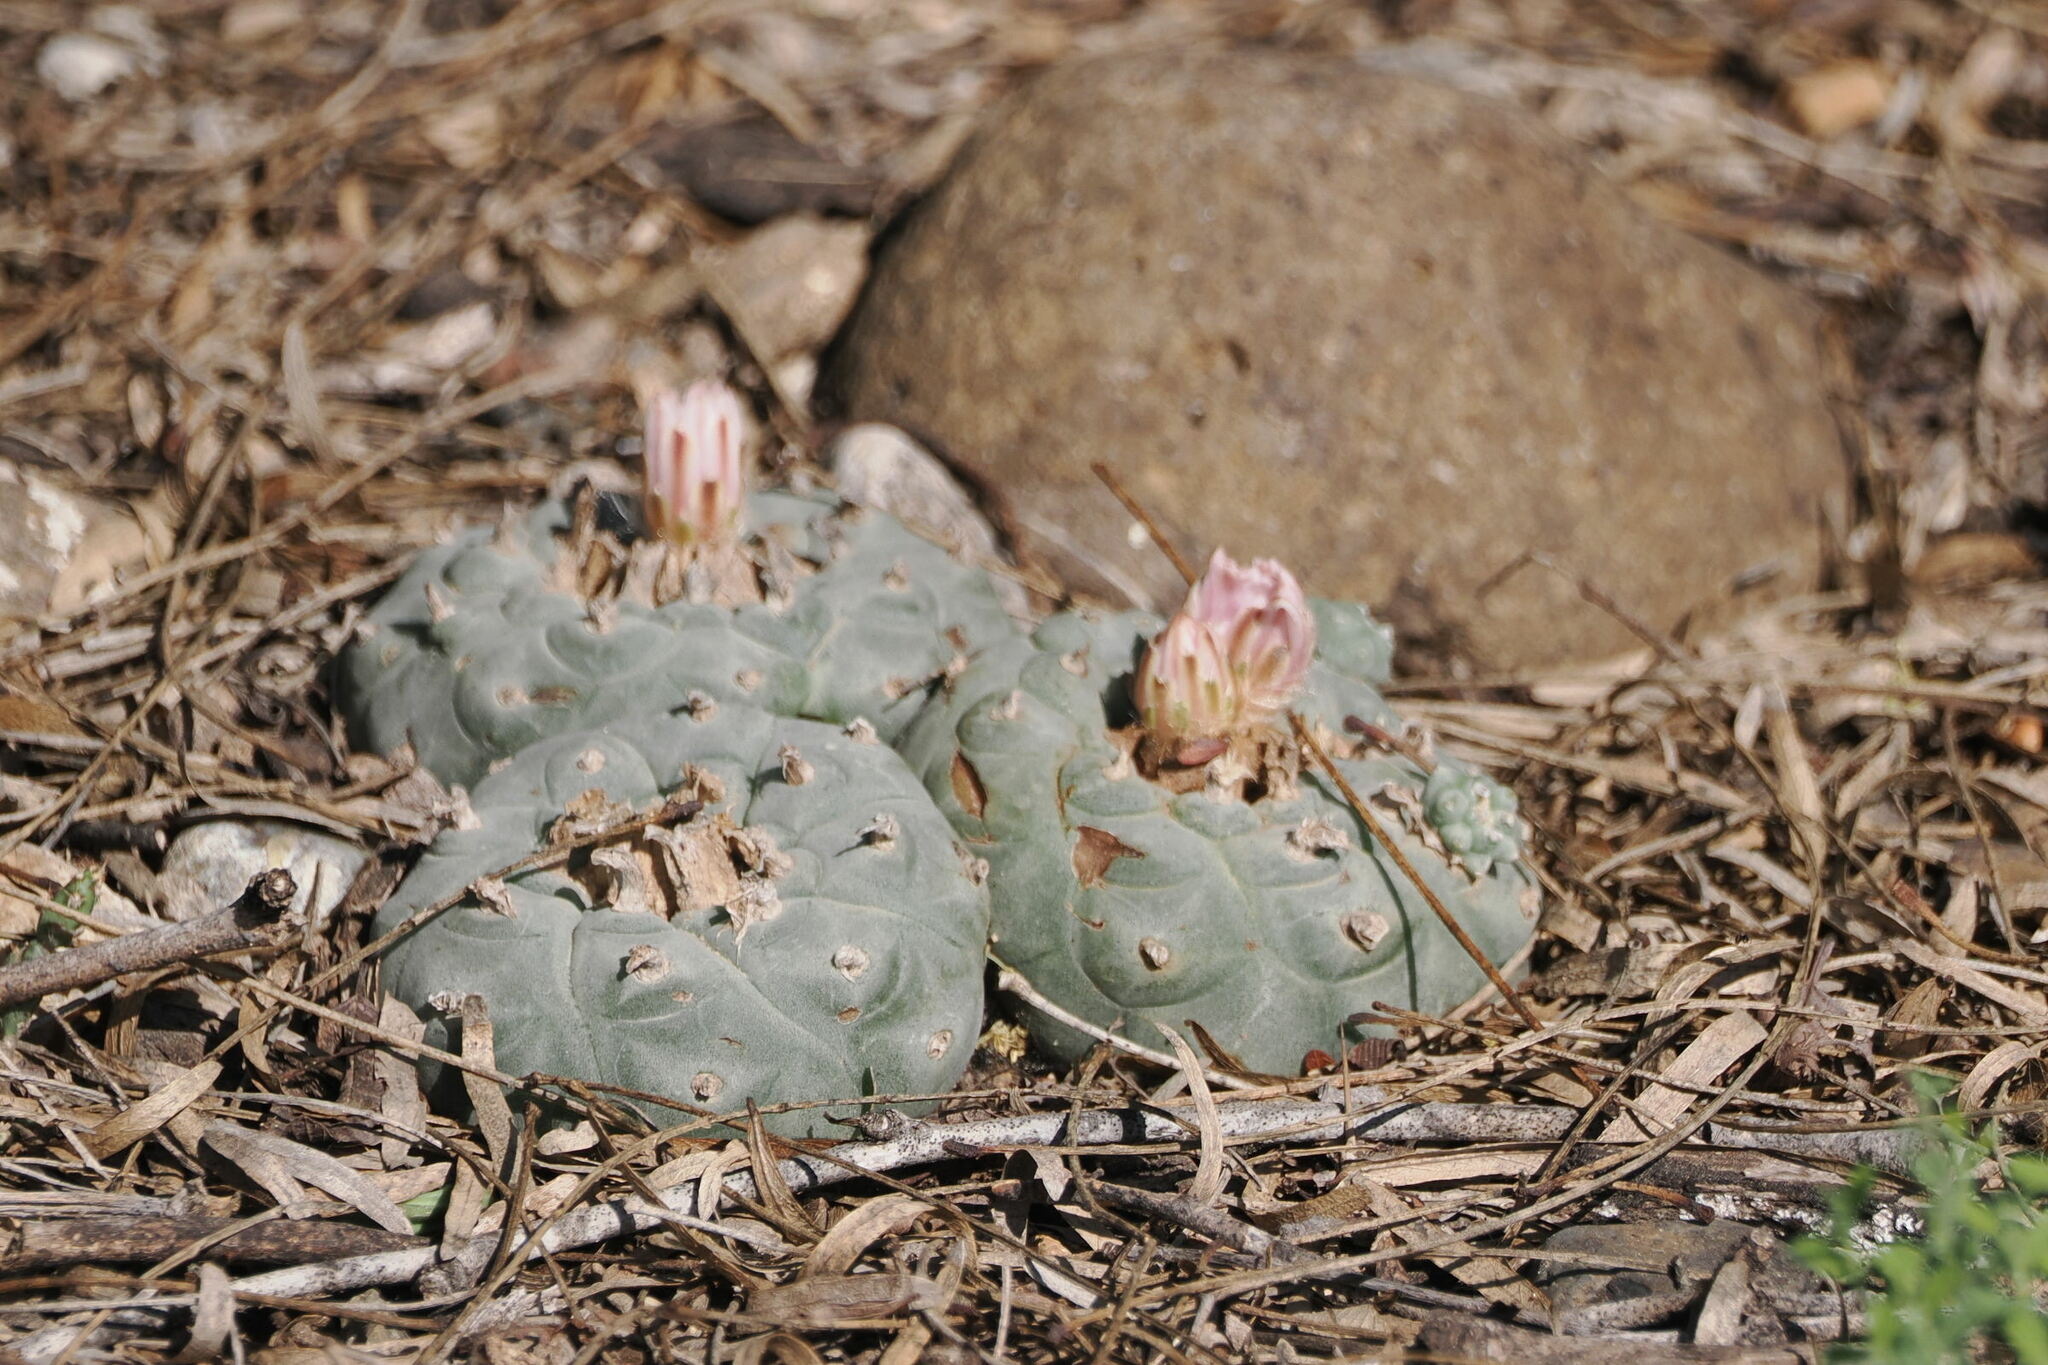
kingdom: Plantae
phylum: Tracheophyta
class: Magnoliopsida
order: Caryophyllales
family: Cactaceae
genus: Lophophora
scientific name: Lophophora williamsii
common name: Indian-dope
